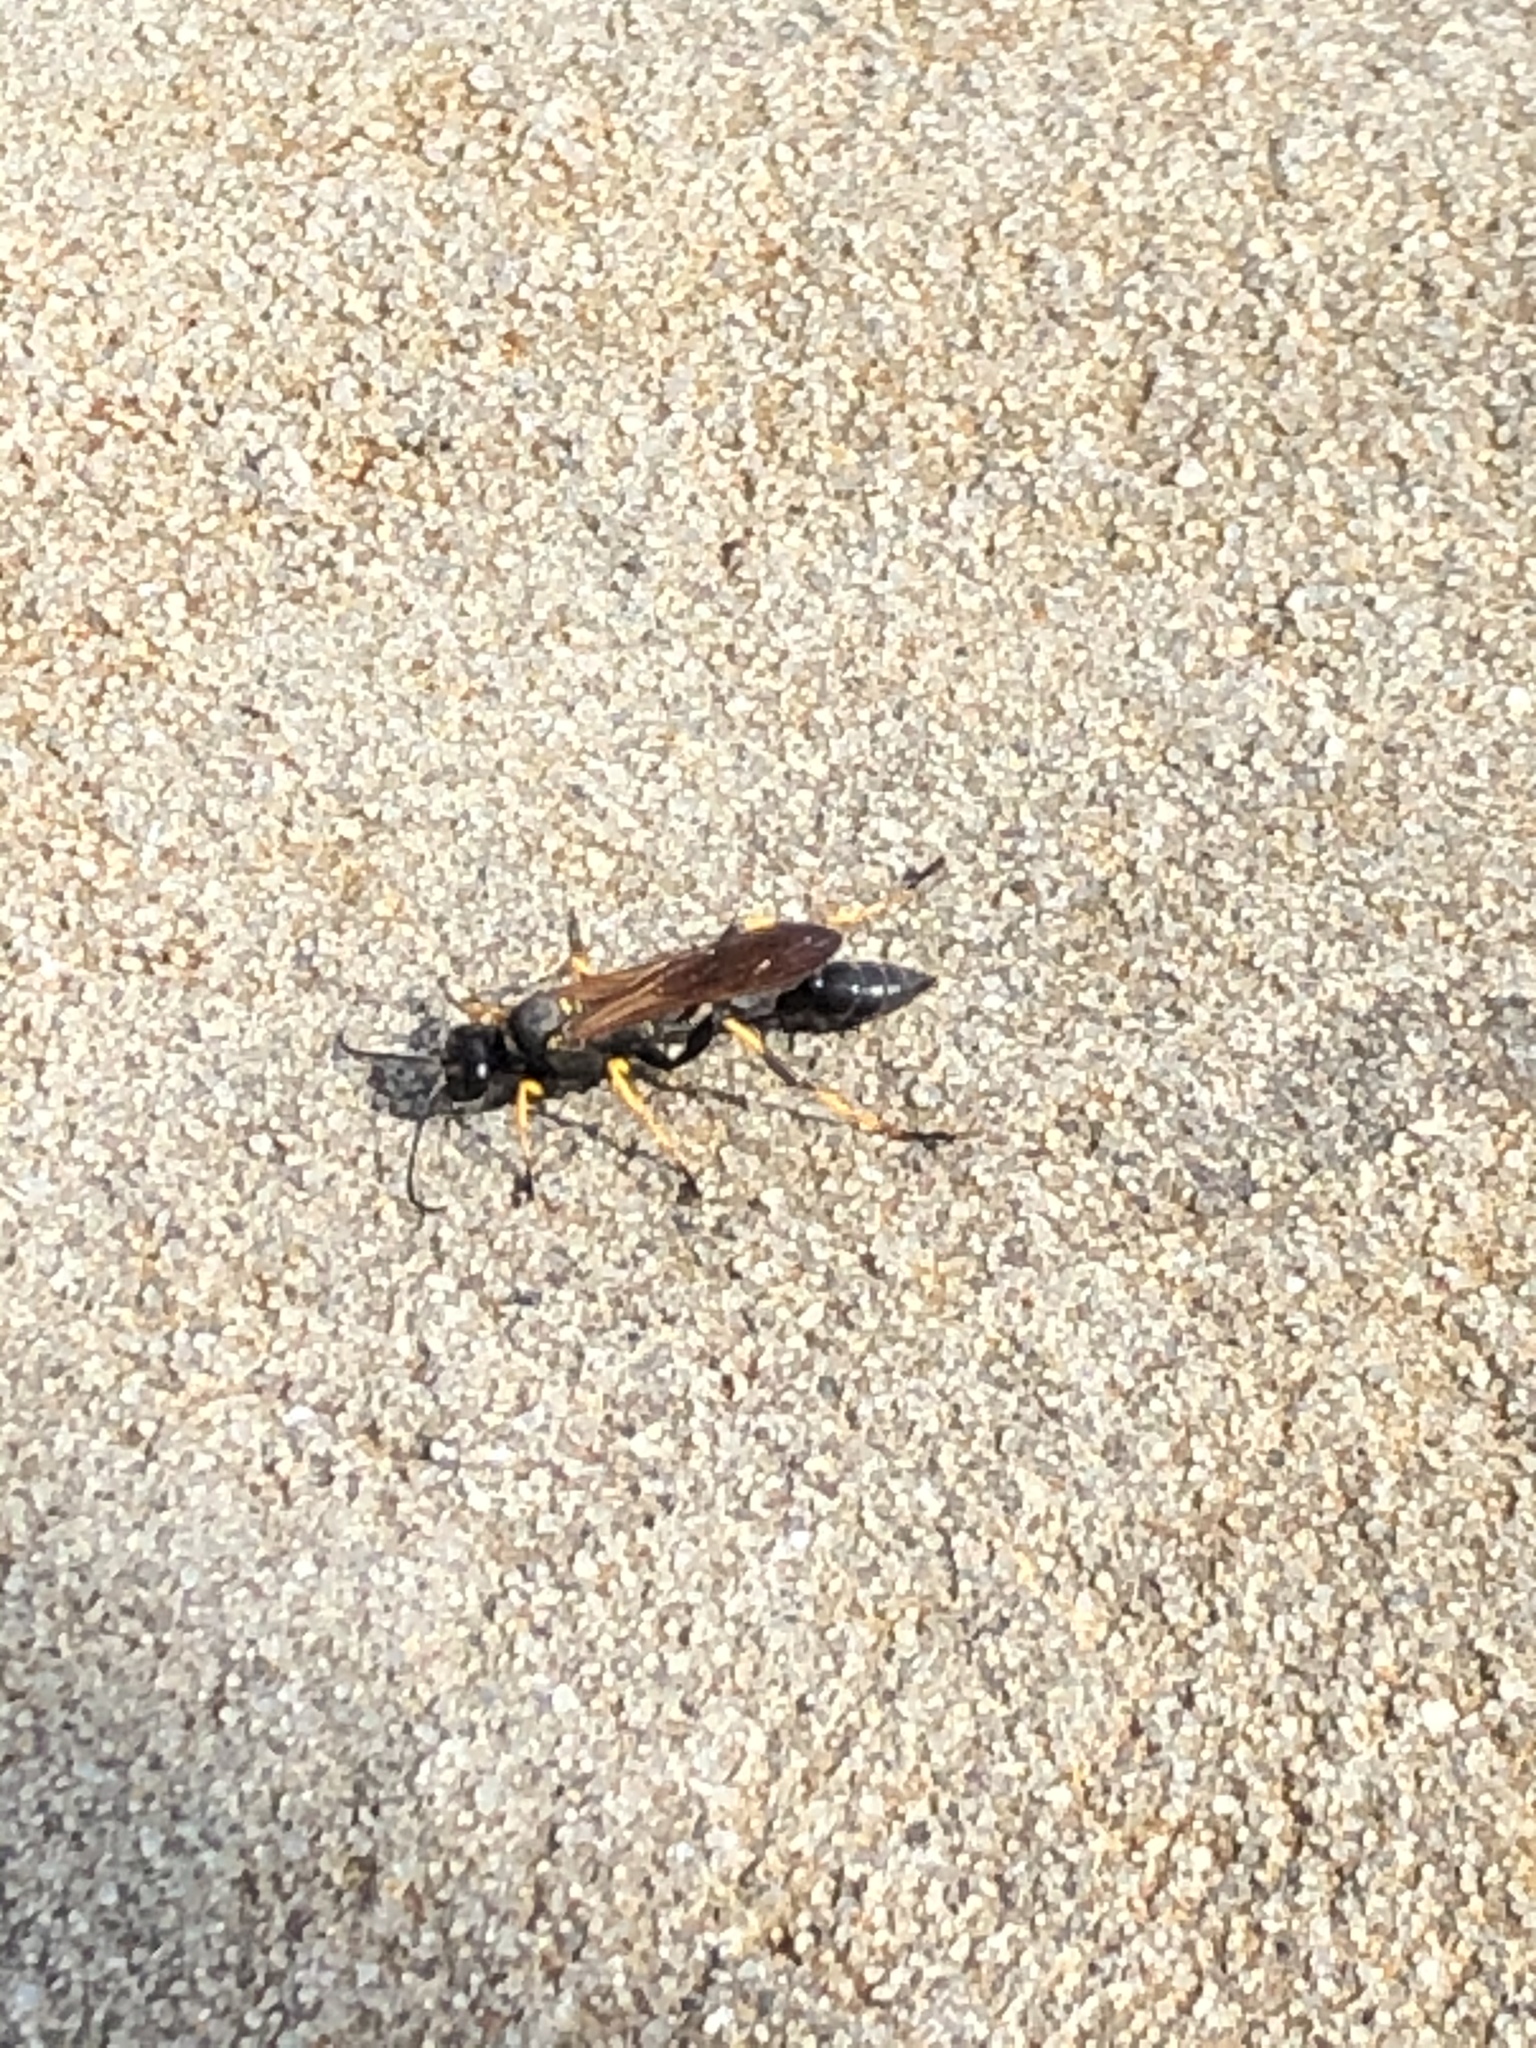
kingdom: Animalia
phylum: Arthropoda
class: Insecta
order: Hymenoptera
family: Sphecidae
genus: Sceliphron
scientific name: Sceliphron caementarium
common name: Mud dauber
